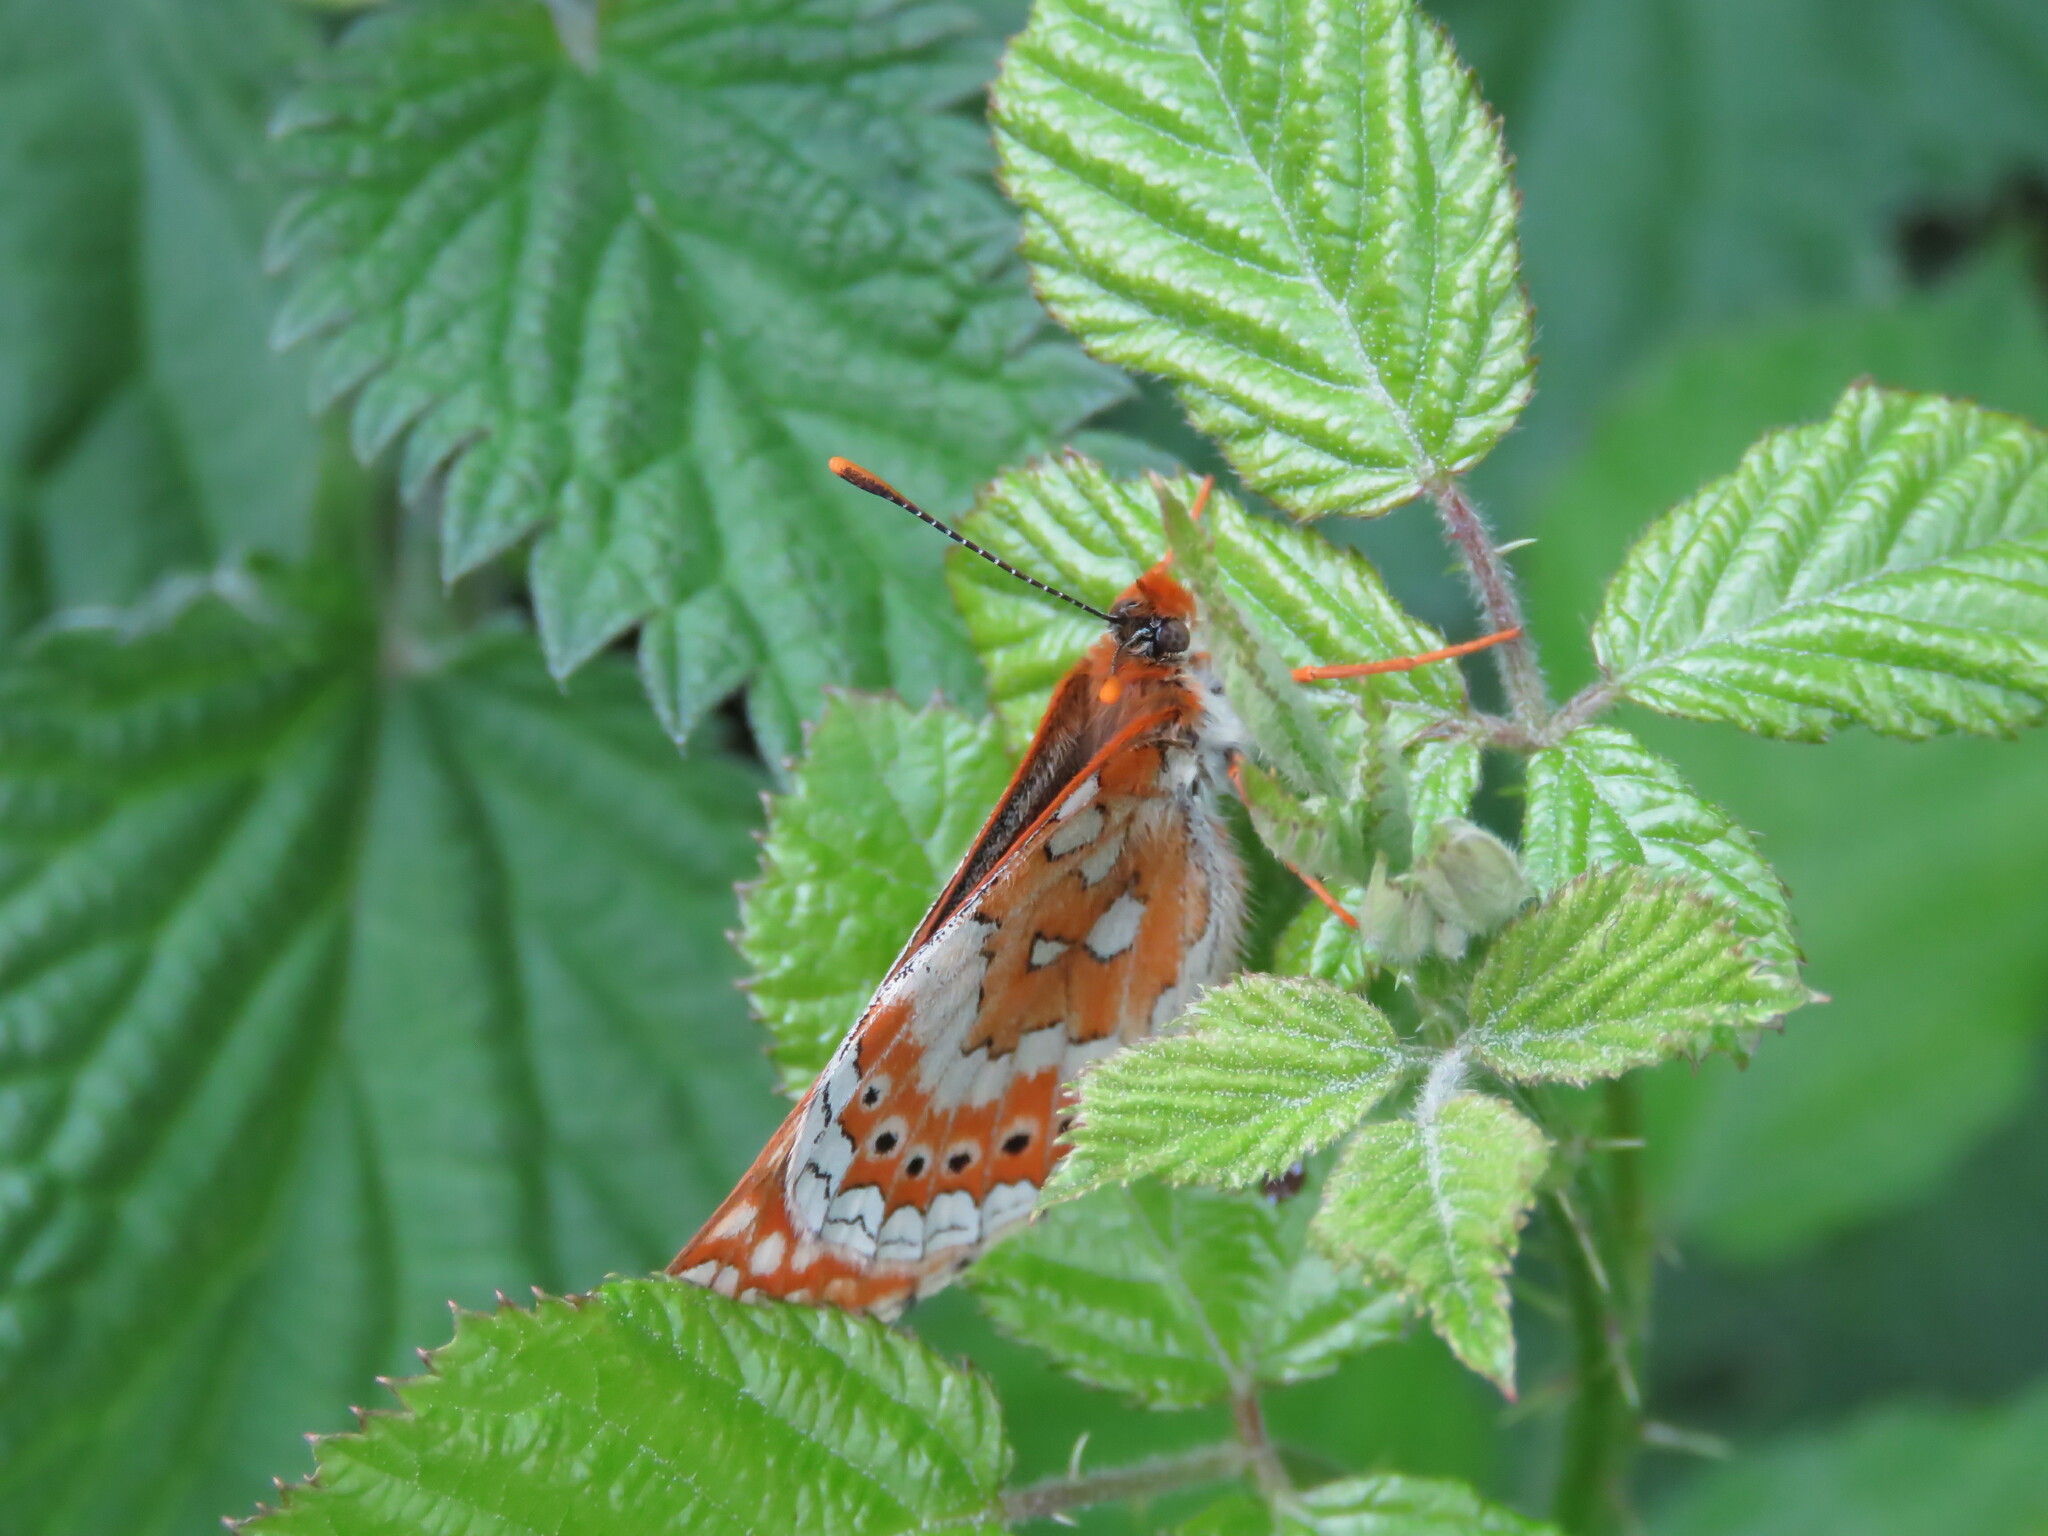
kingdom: Animalia
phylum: Arthropoda
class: Insecta
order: Lepidoptera
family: Nymphalidae
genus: Euphydryas
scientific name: Euphydryas aurinia
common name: Marsh fritillary
